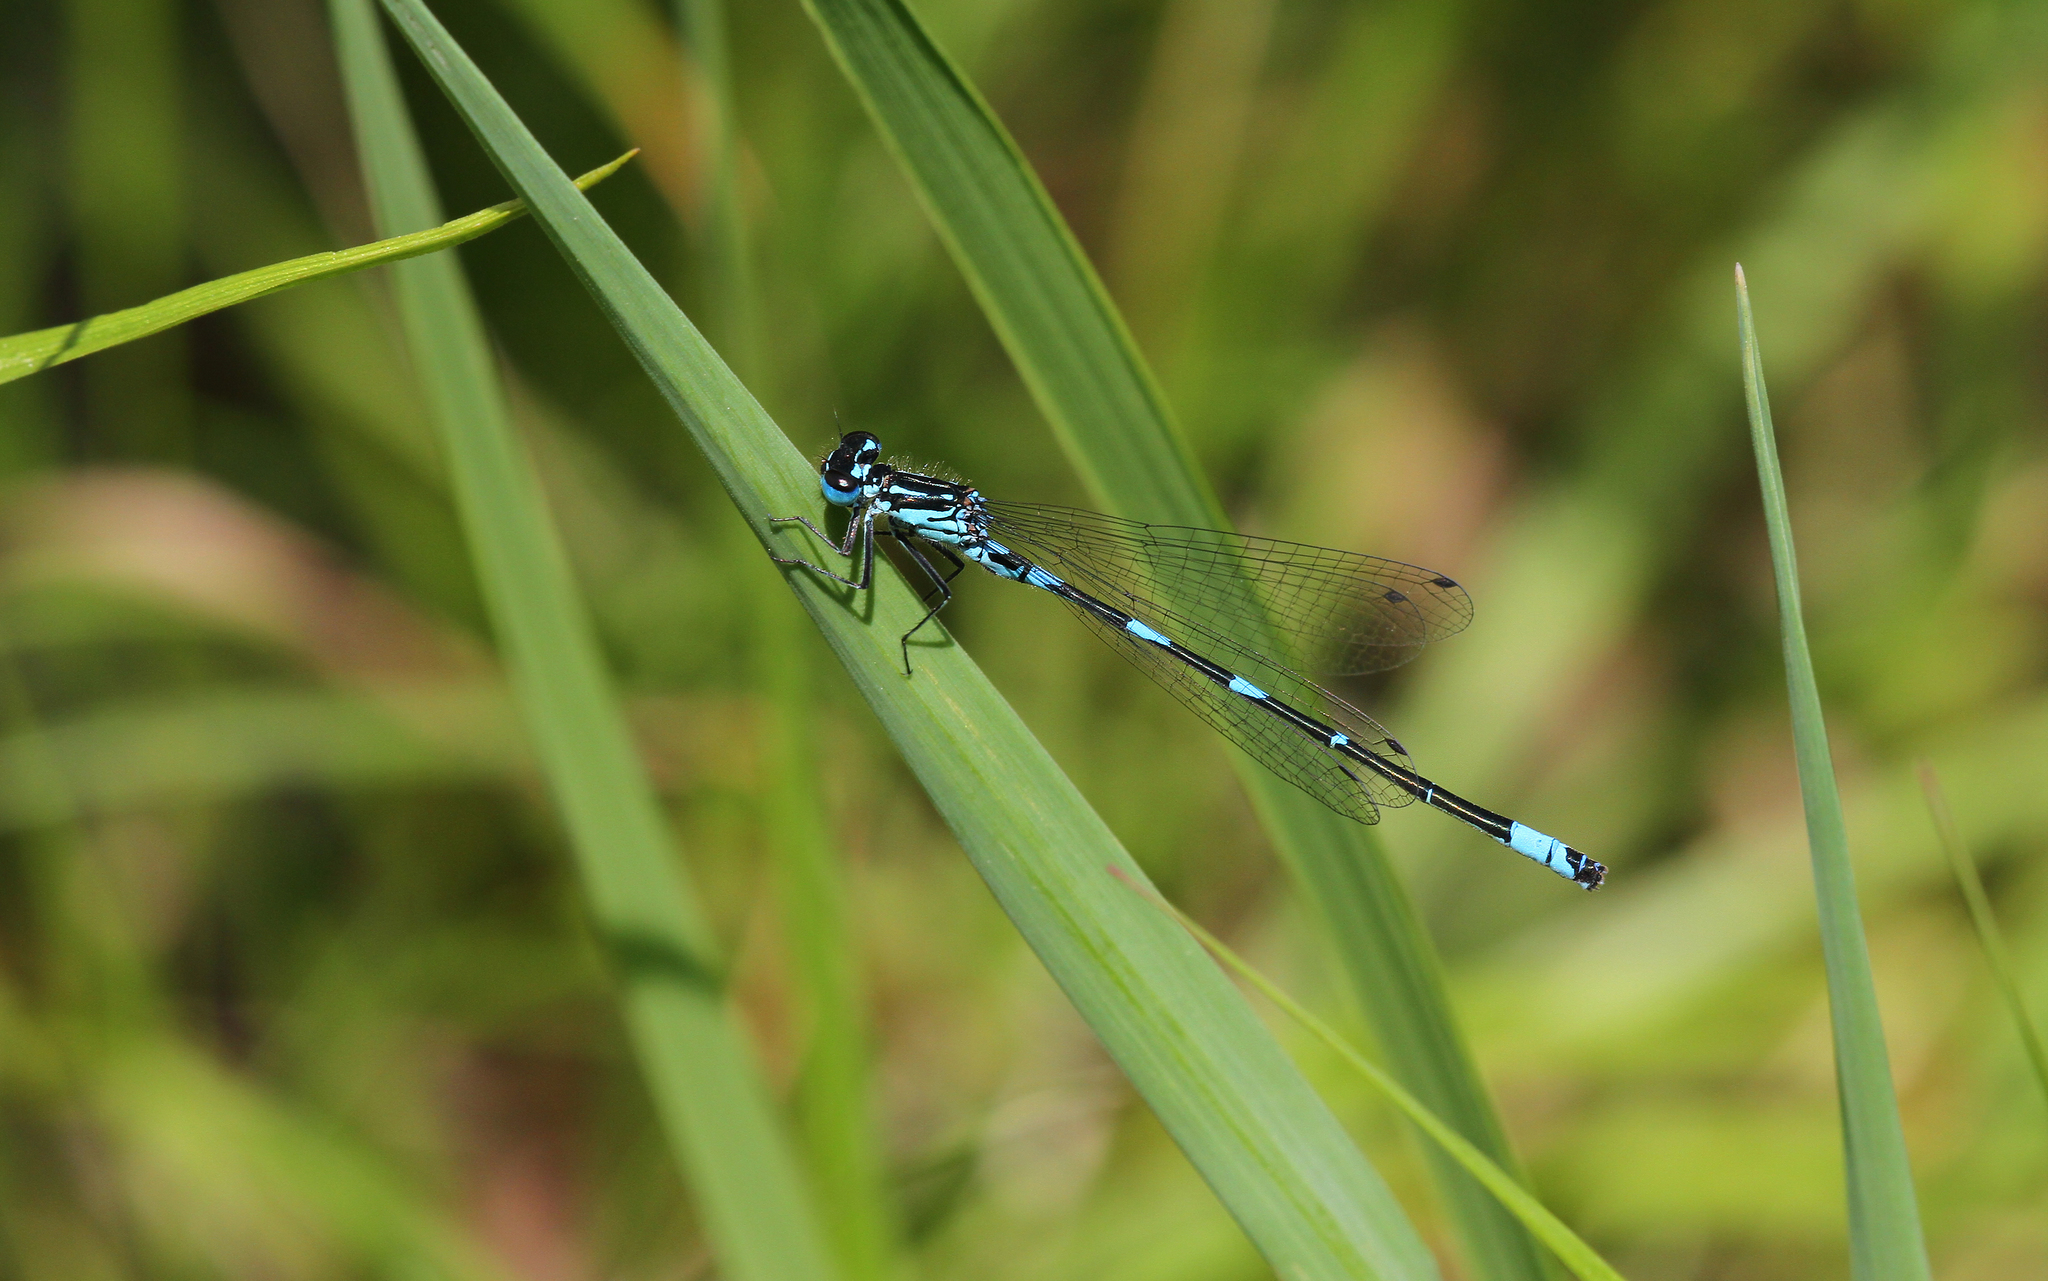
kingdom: Animalia
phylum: Arthropoda
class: Insecta
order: Odonata
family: Coenagrionidae
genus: Coenagrion
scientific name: Coenagrion pulchellum
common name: Variable bluet
